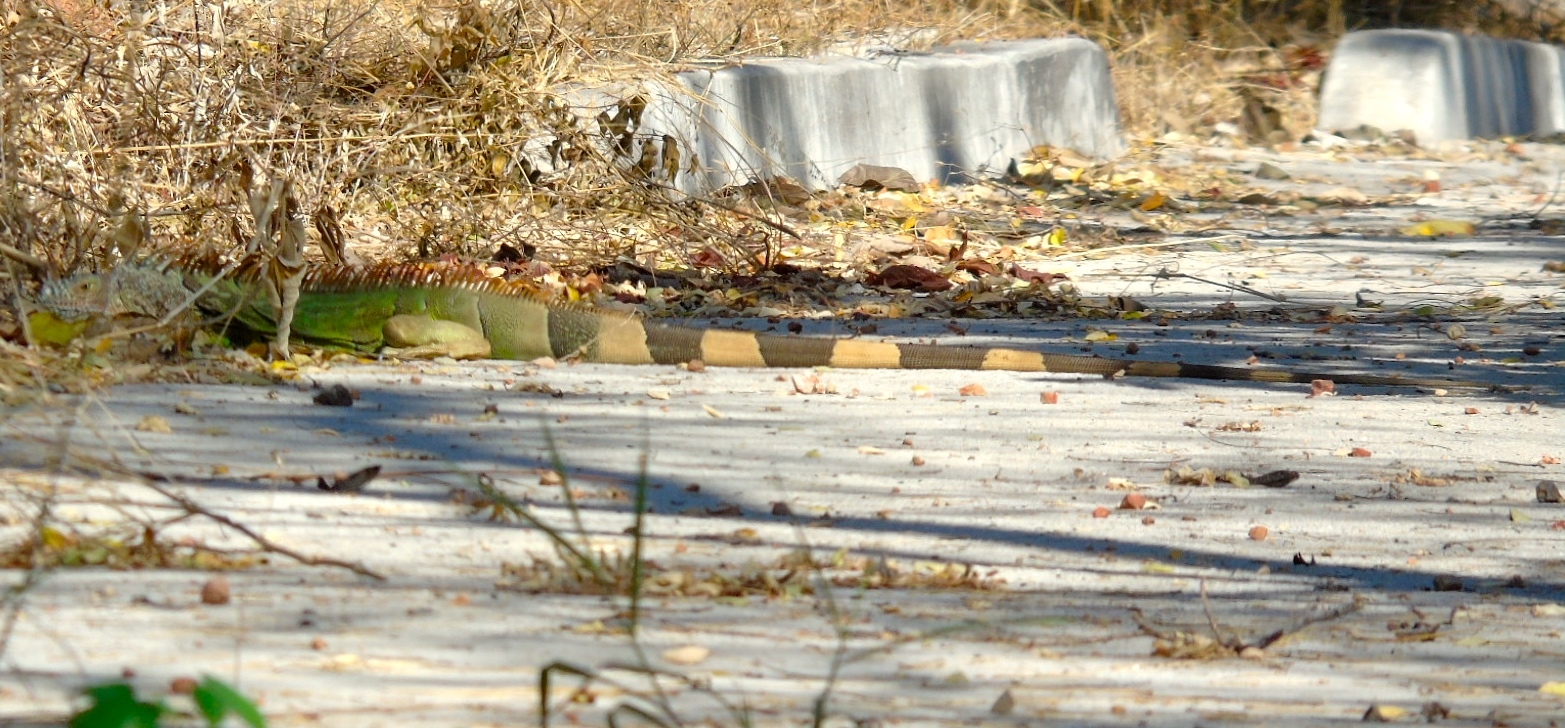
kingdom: Animalia
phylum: Chordata
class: Squamata
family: Iguanidae
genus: Iguana
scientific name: Iguana iguana
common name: Green iguana
